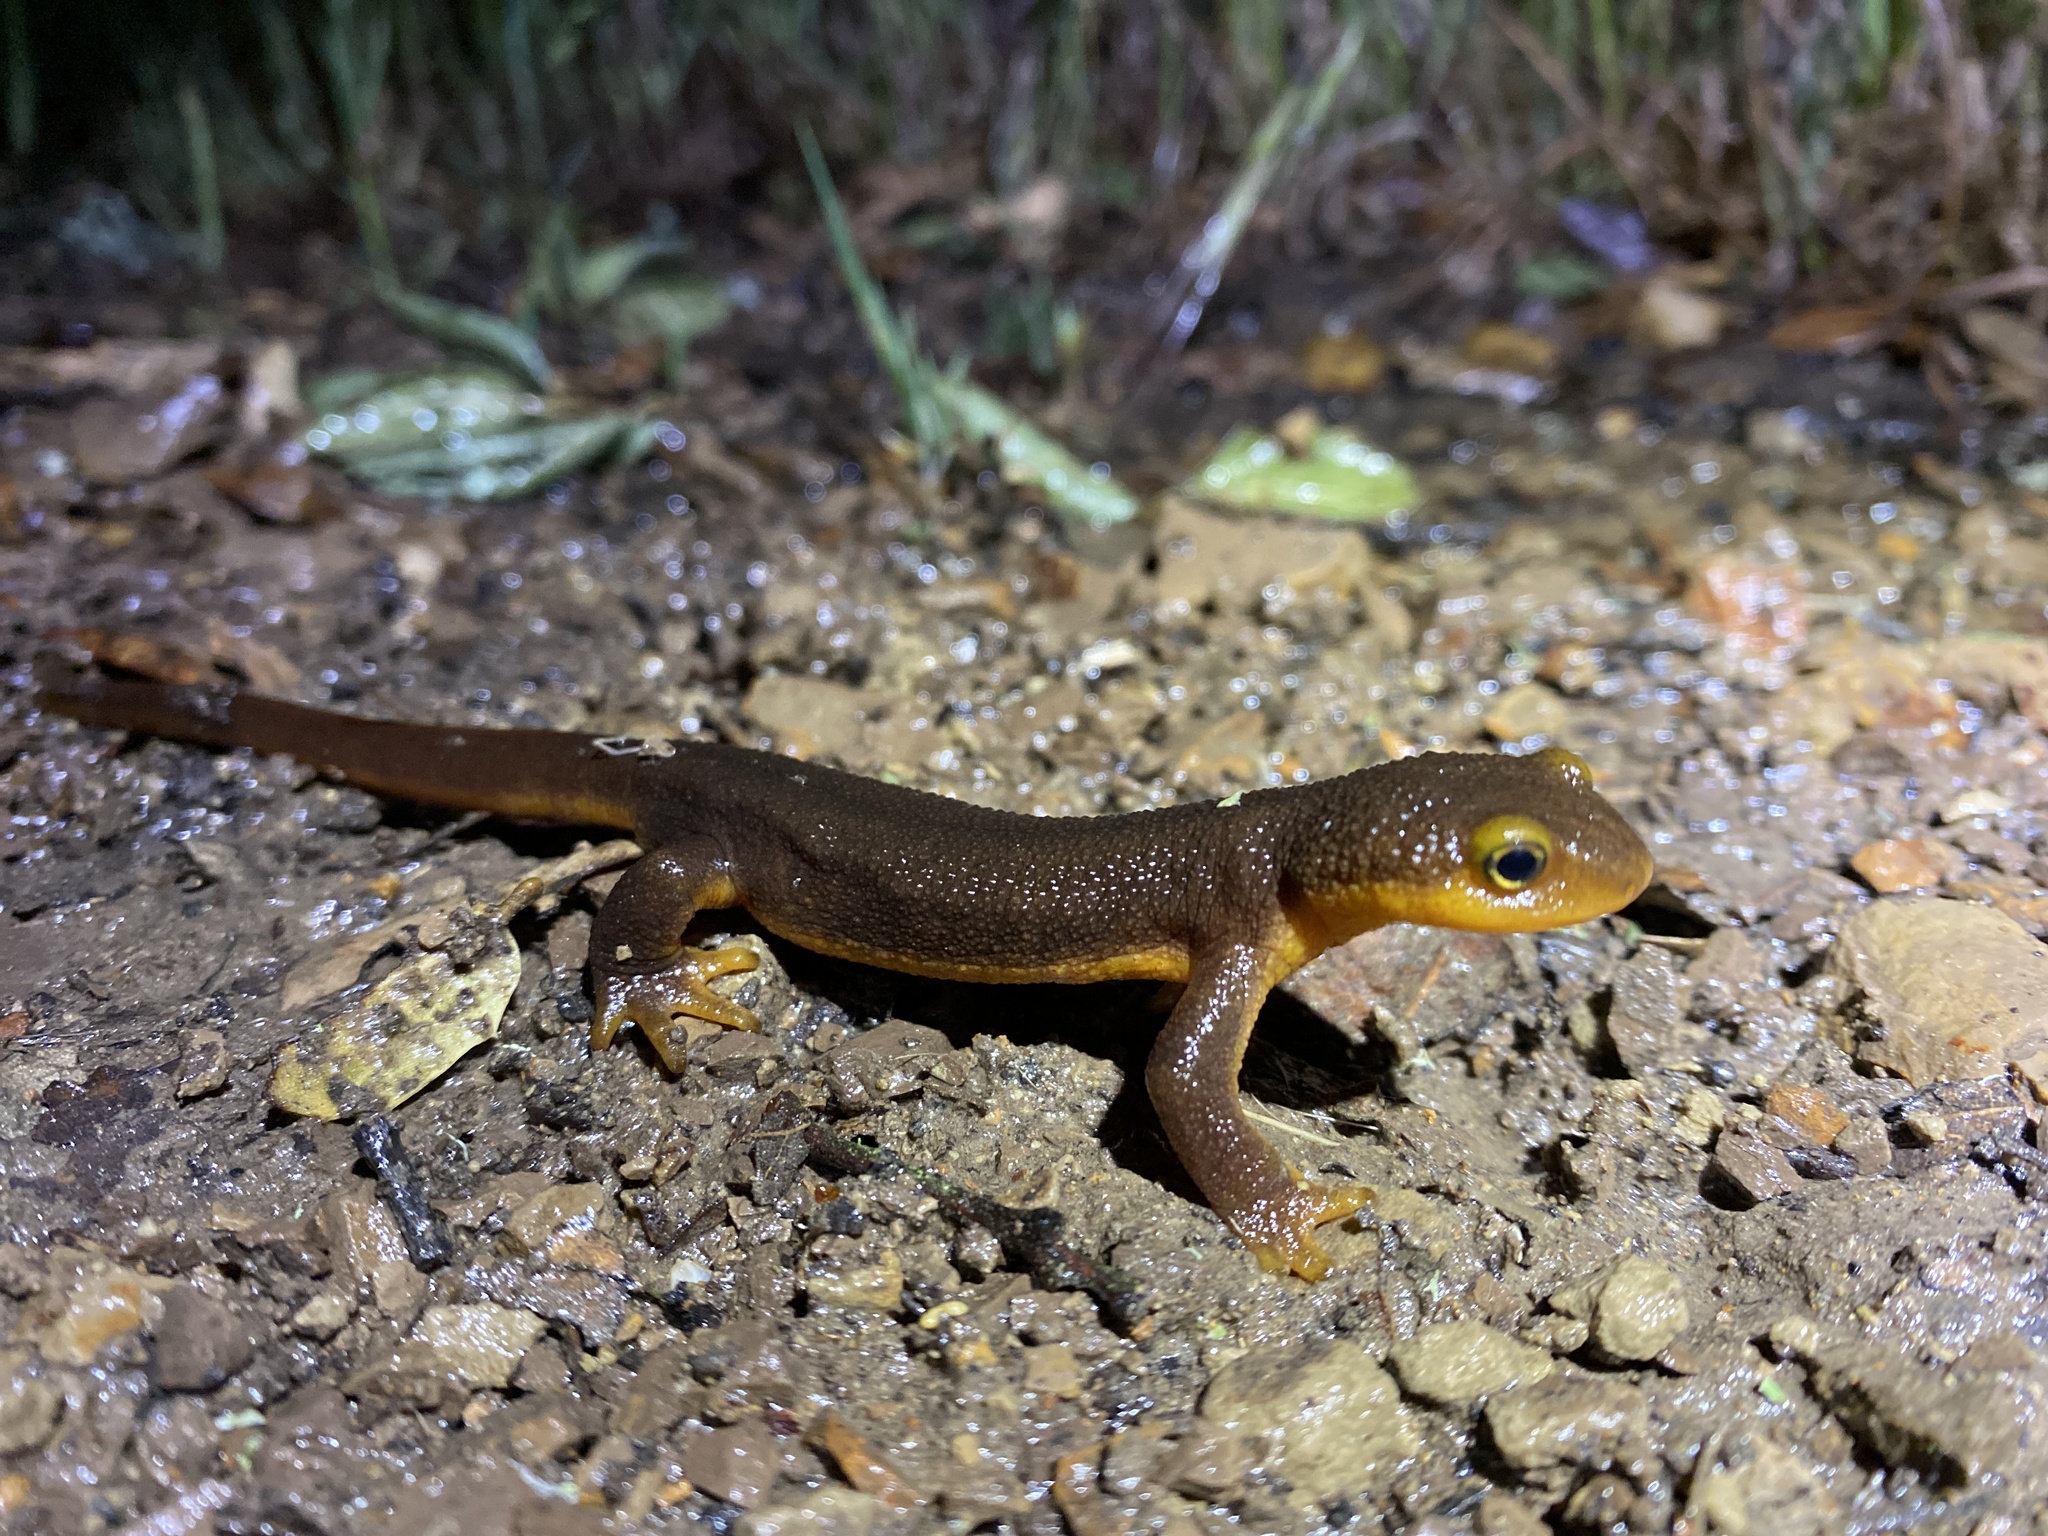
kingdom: Animalia
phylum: Chordata
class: Amphibia
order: Caudata
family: Salamandridae
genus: Taricha
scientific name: Taricha torosa
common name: California newt
